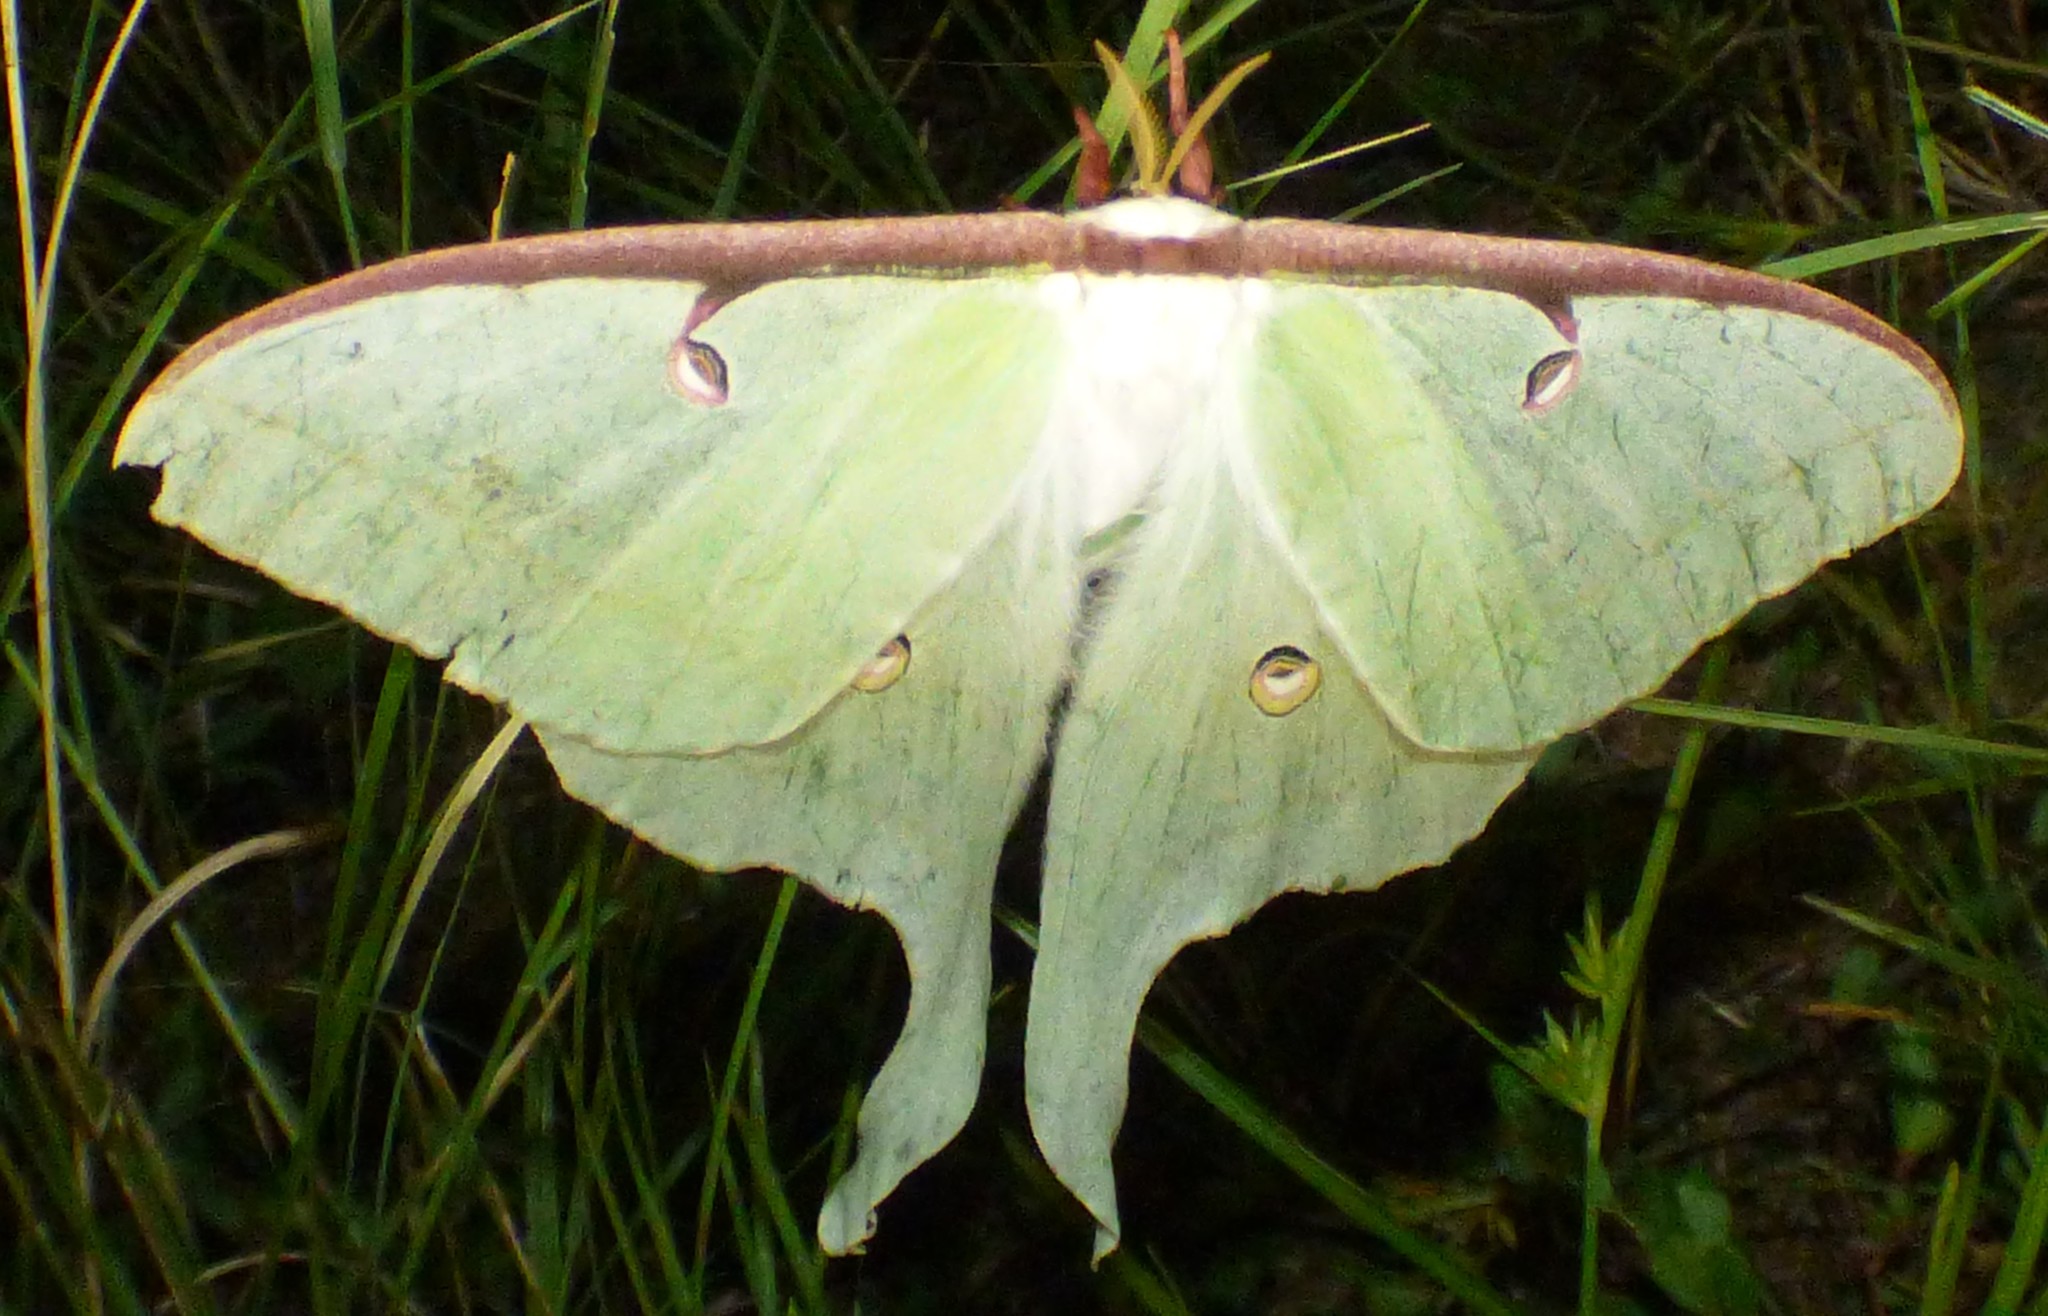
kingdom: Animalia
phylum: Arthropoda
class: Insecta
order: Lepidoptera
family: Saturniidae
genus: Actias
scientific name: Actias luna
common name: Luna moth
